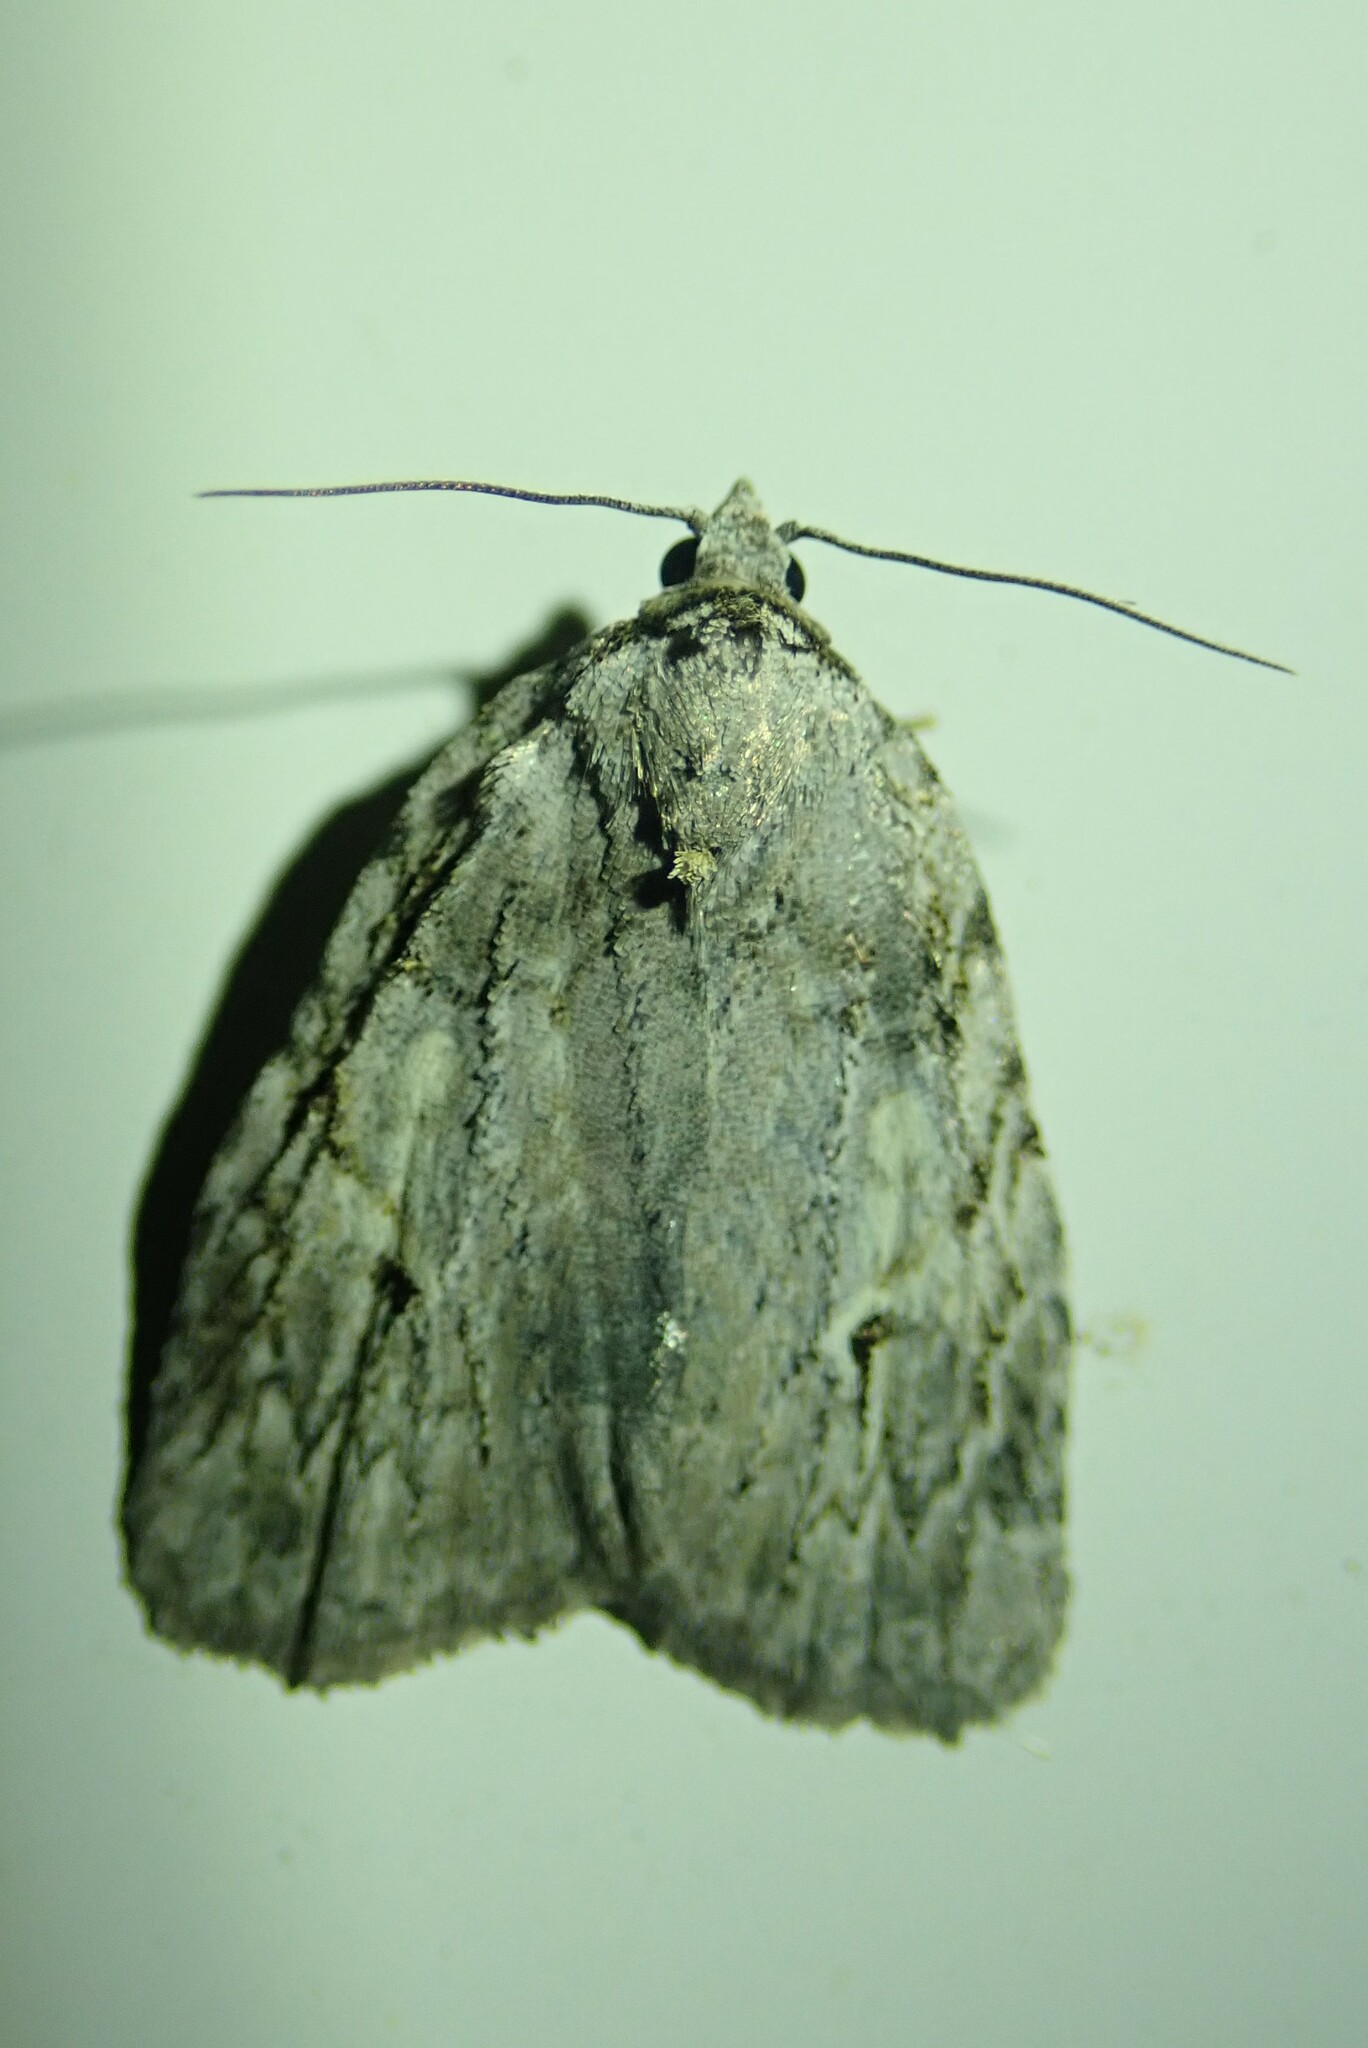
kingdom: Animalia
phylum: Arthropoda
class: Insecta
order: Lepidoptera
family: Noctuidae
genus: Balsa
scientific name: Balsa labecula
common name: White-blotched balsa moth
